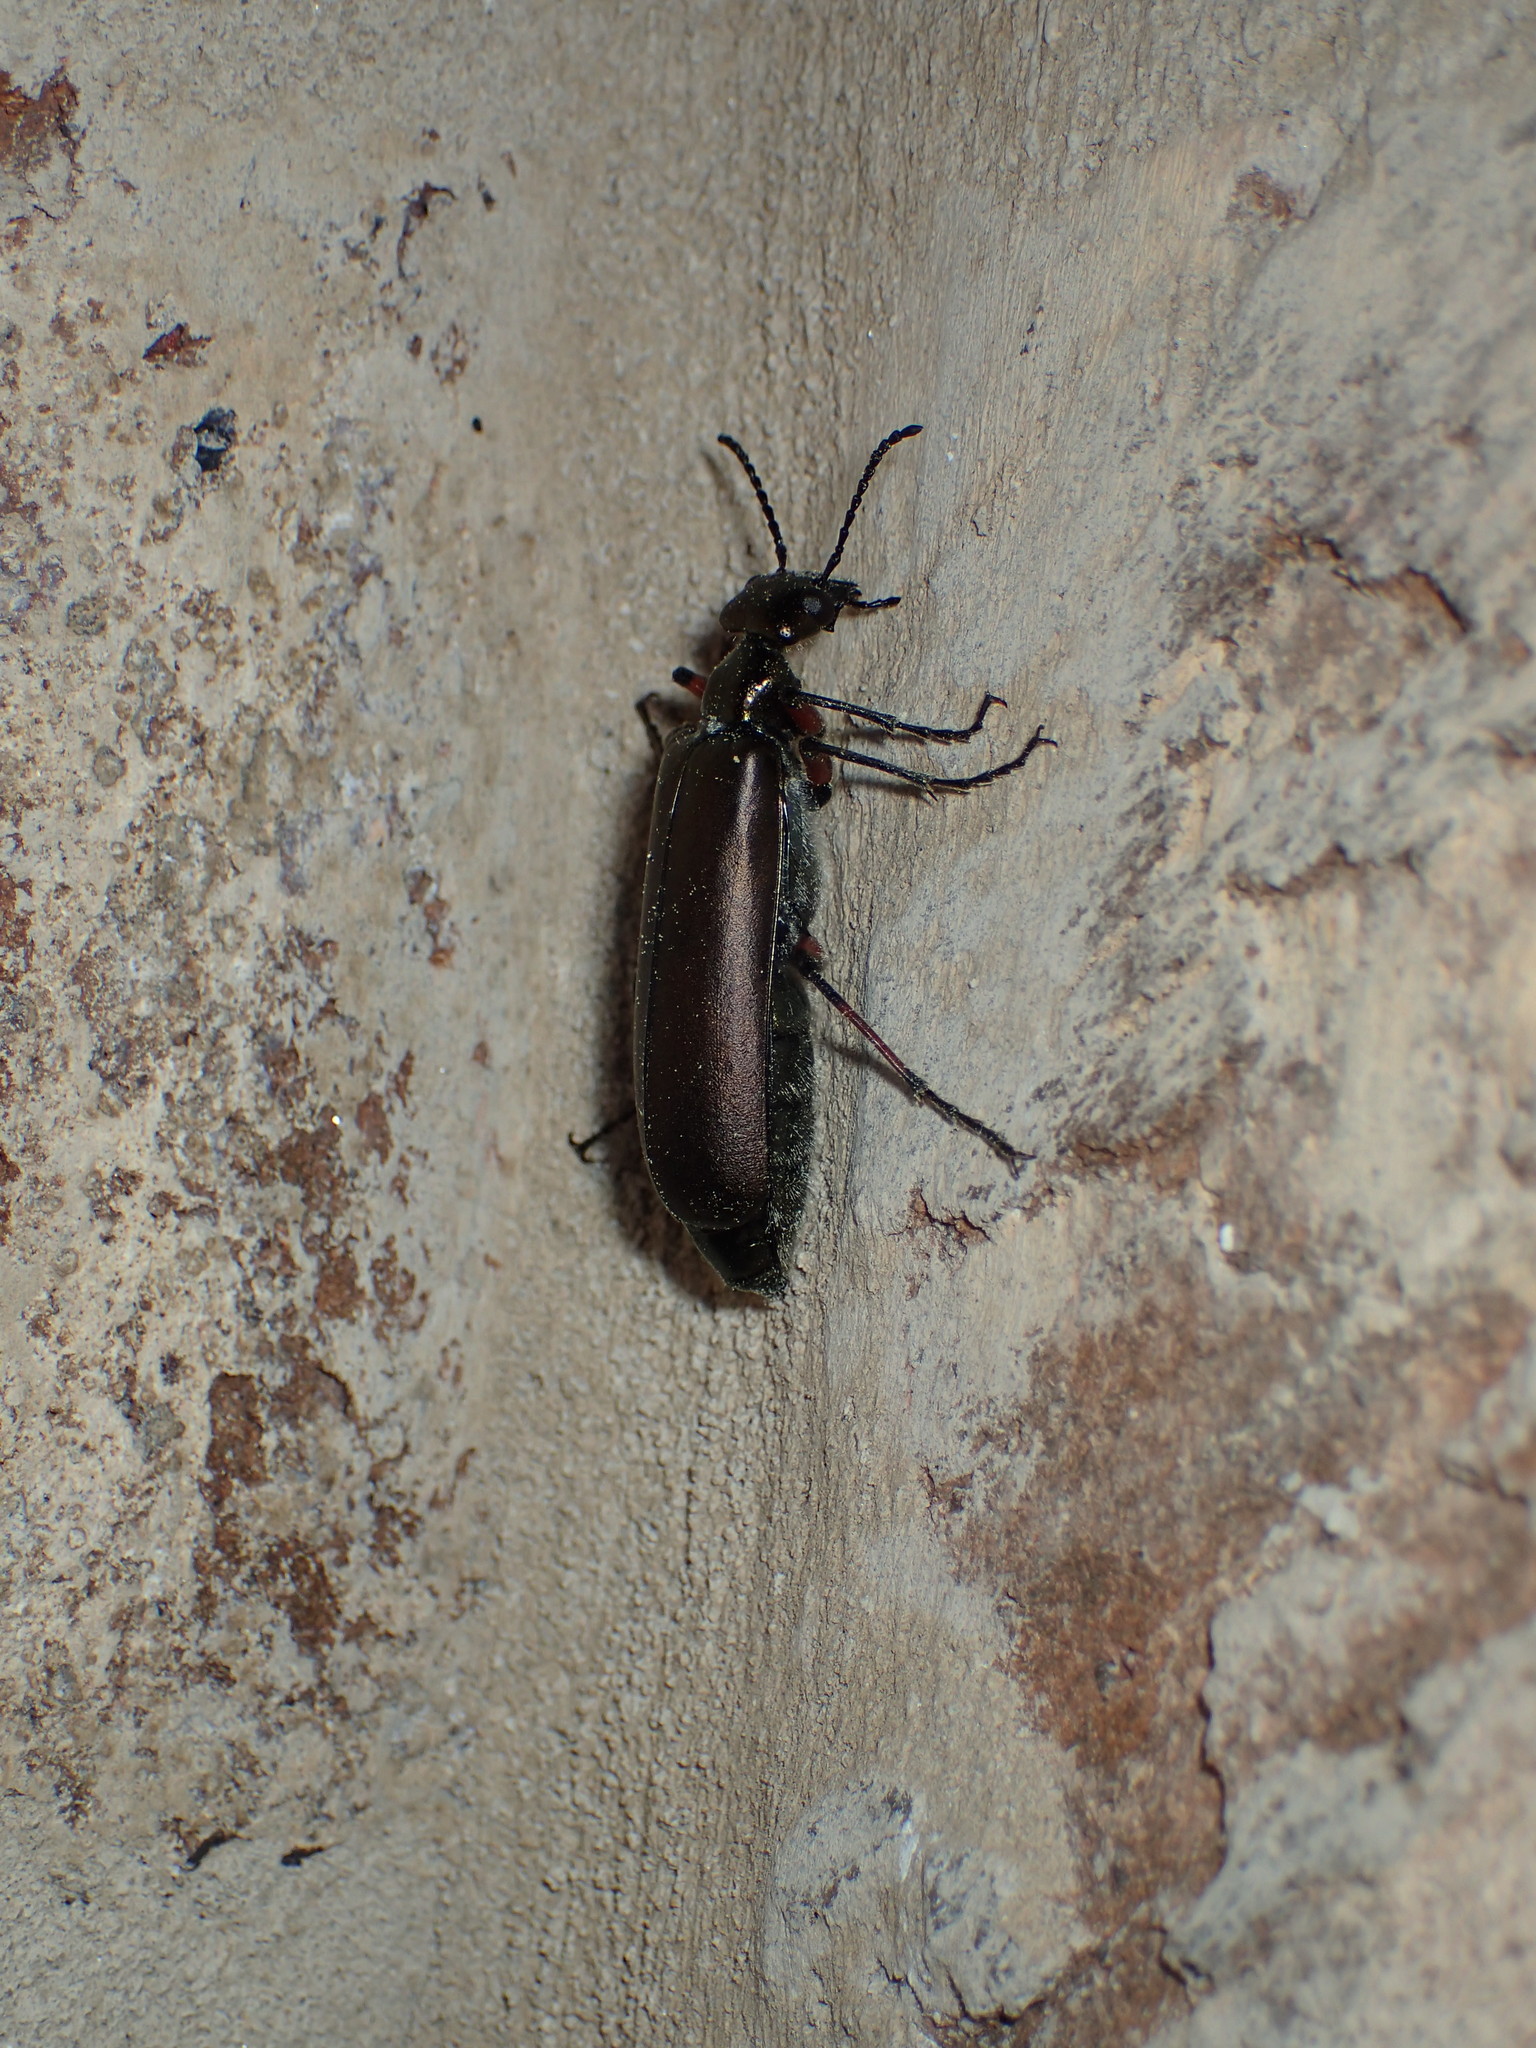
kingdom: Animalia
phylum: Arthropoda
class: Insecta
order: Coleoptera
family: Meloidae
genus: Lytta
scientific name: Lytta polita
